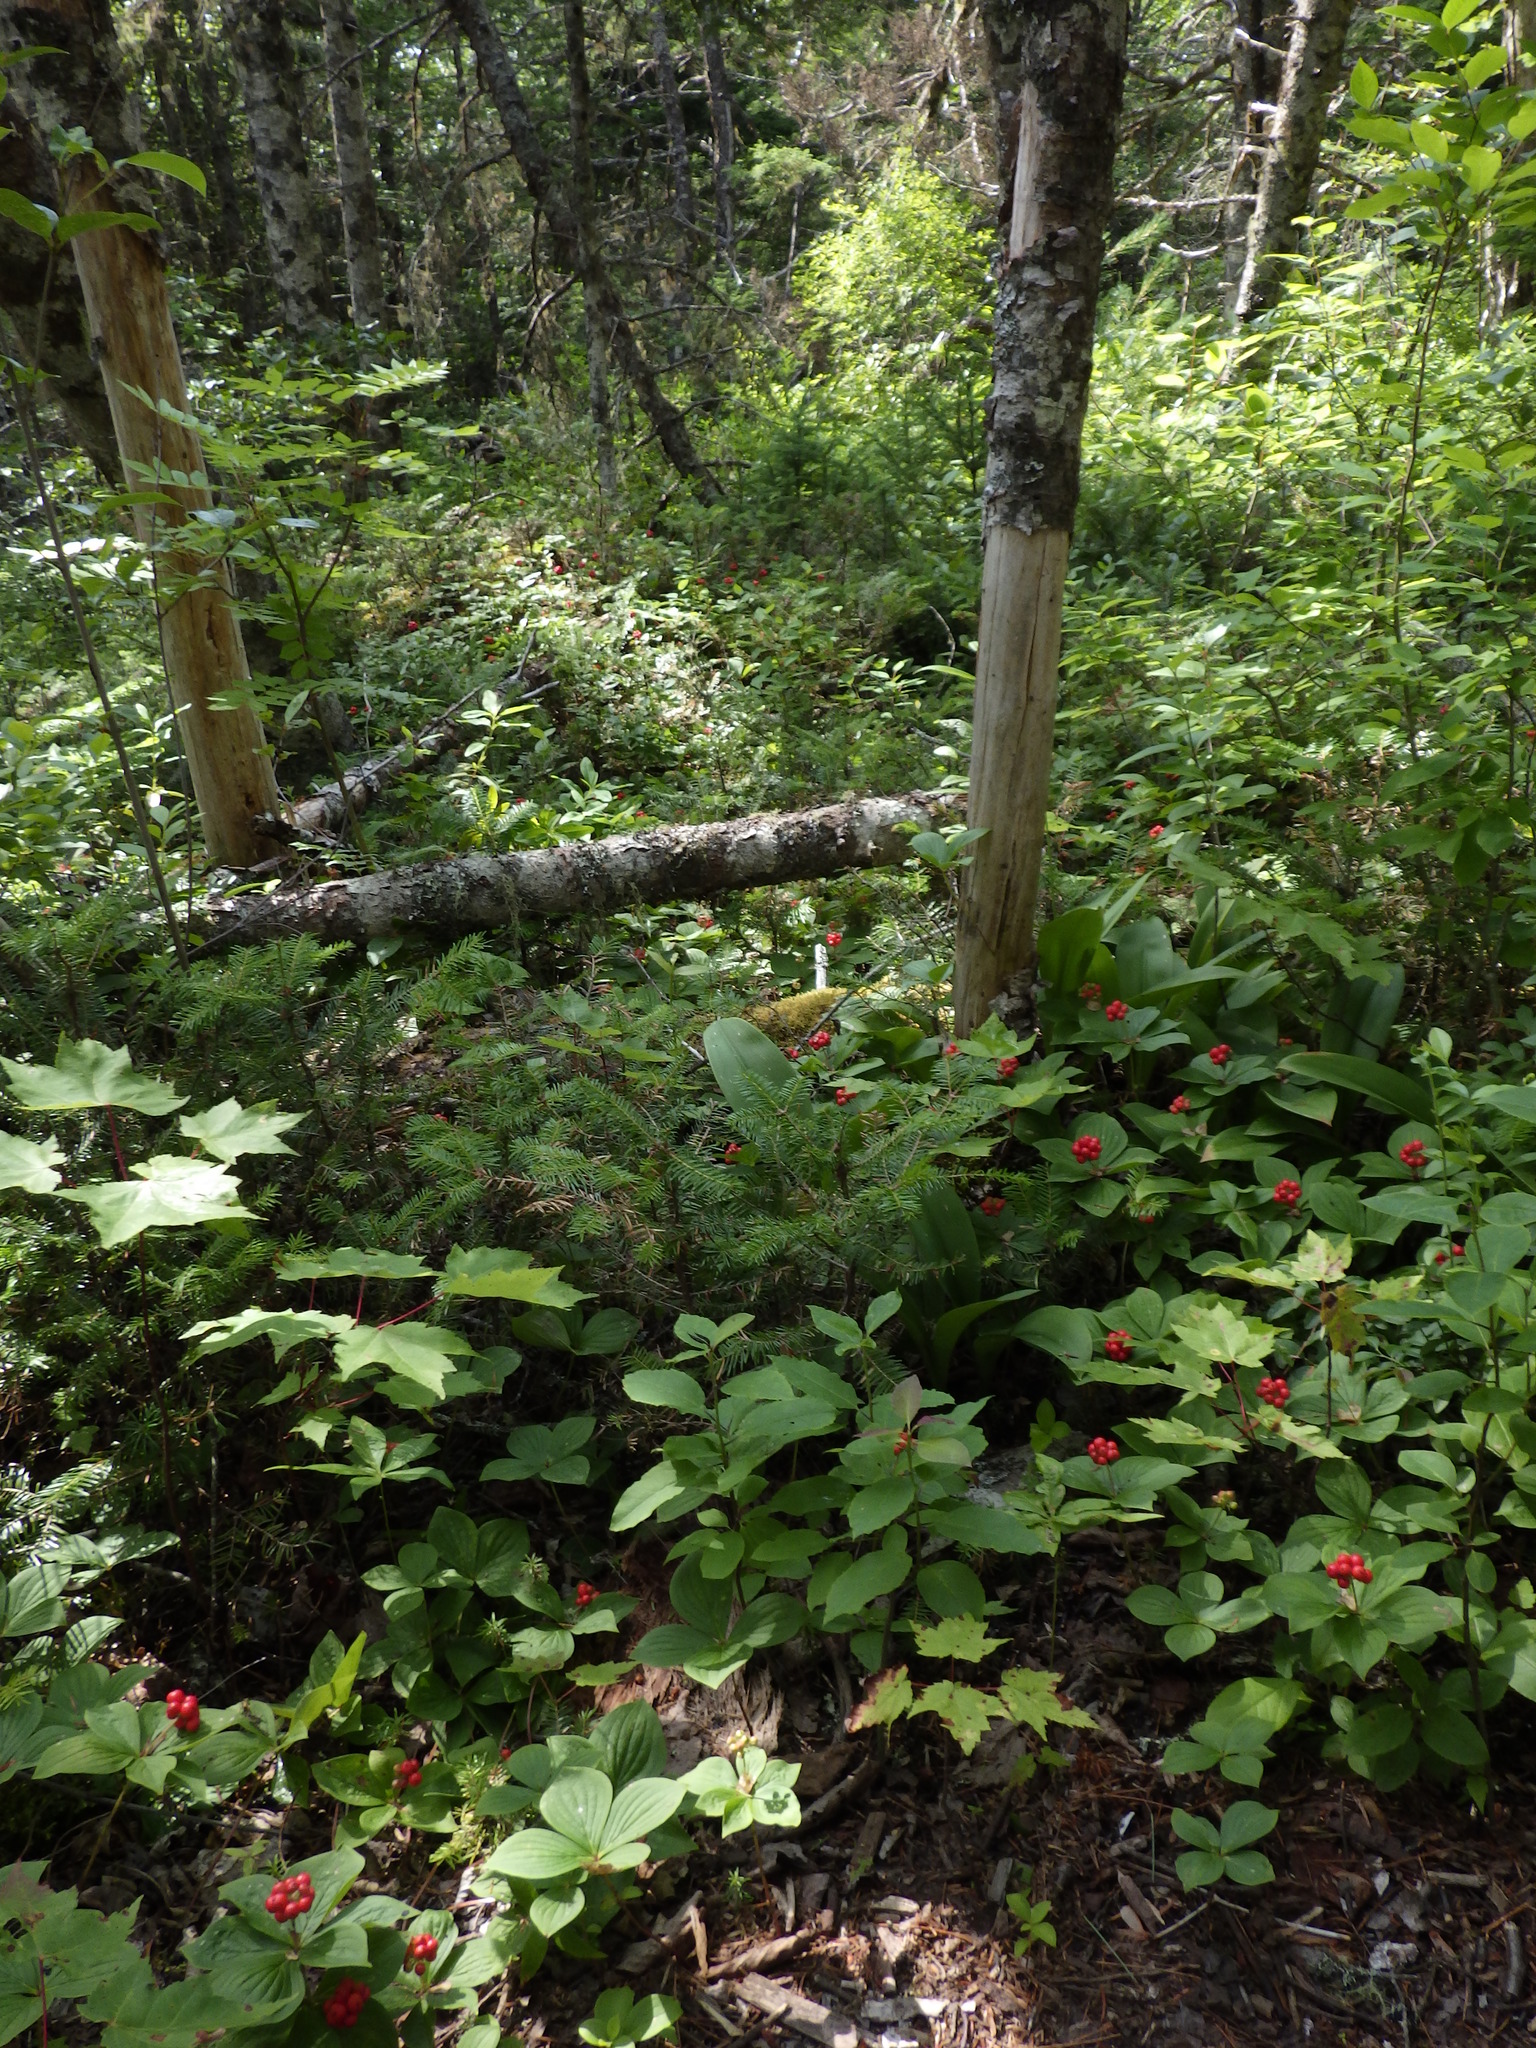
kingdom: Plantae
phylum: Tracheophyta
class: Magnoliopsida
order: Cornales
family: Cornaceae
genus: Cornus
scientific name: Cornus canadensis
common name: Creeping dogwood
